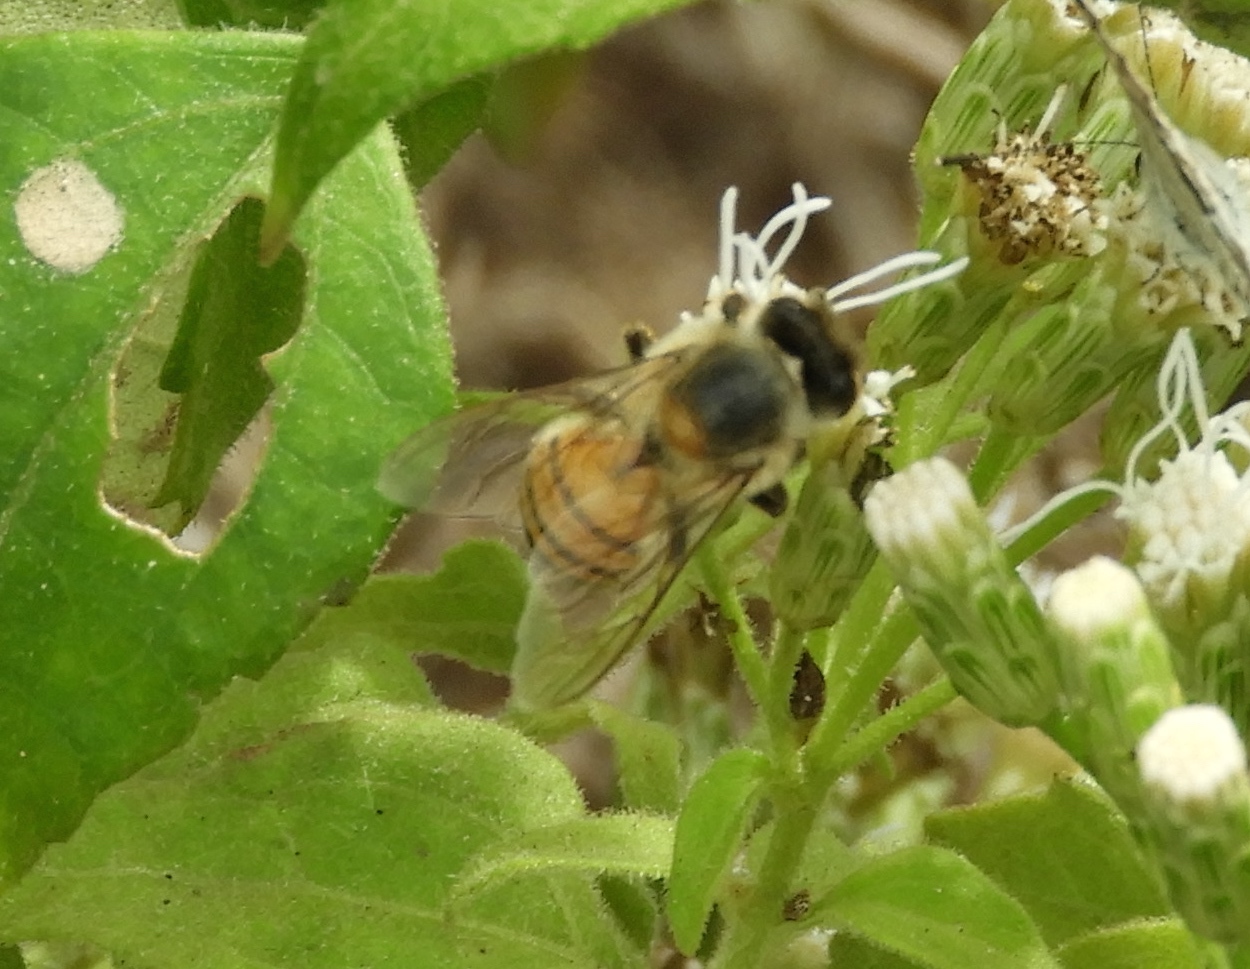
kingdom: Animalia
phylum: Arthropoda
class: Insecta
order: Hymenoptera
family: Apidae
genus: Apis
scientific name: Apis mellifera
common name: Honey bee
